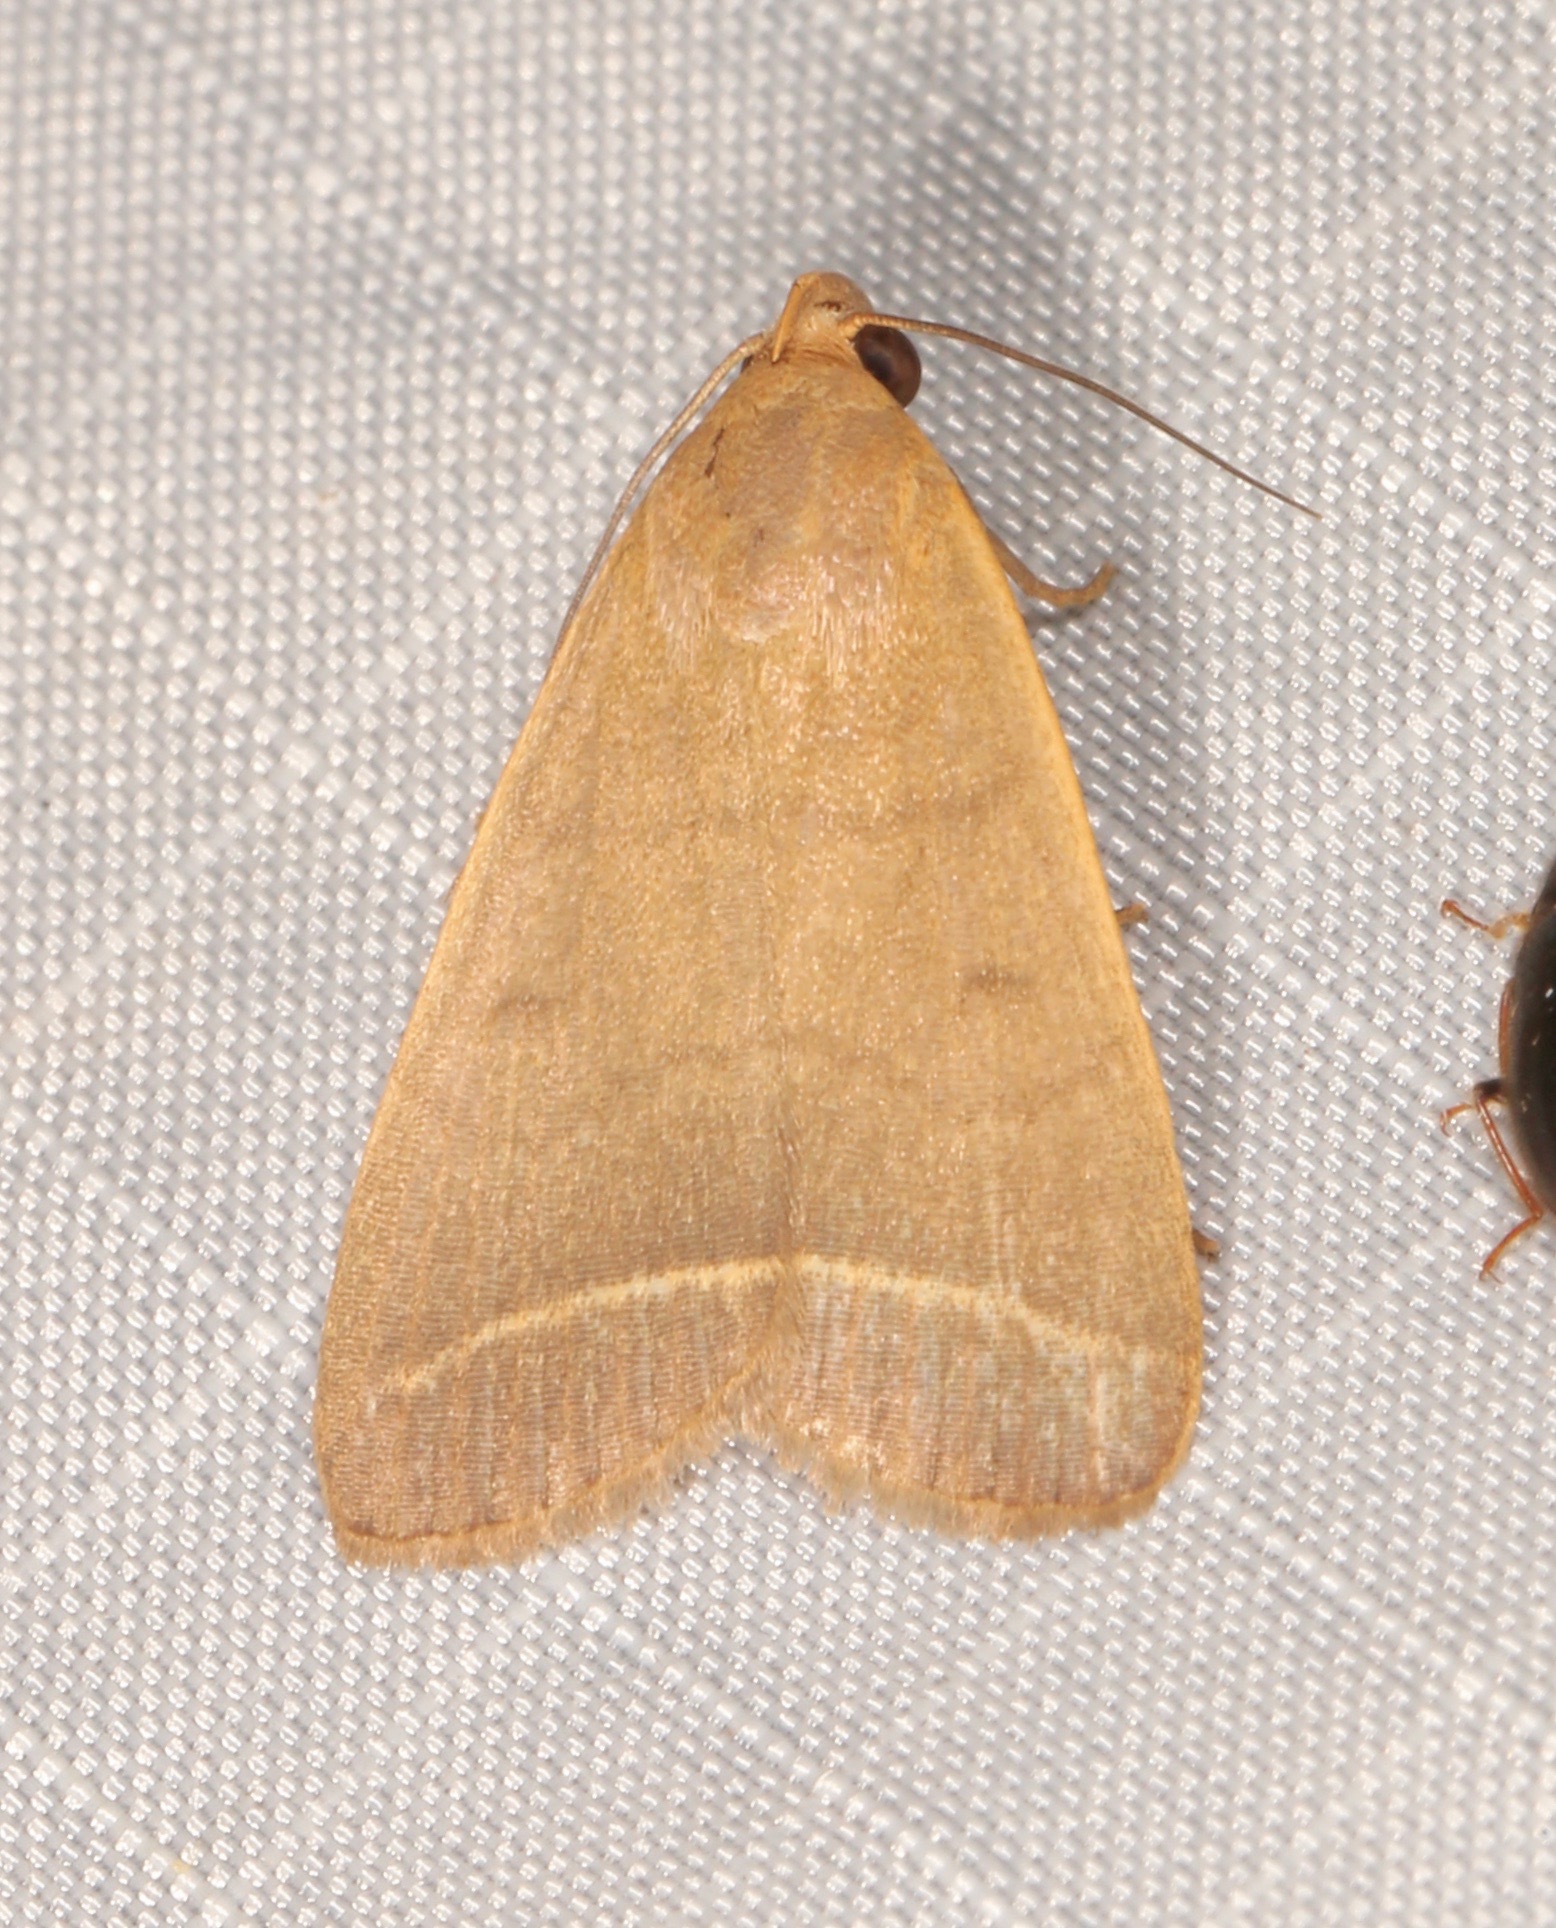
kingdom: Animalia
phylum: Arthropoda
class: Insecta
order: Lepidoptera
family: Erebidae
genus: Simplicia
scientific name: Simplicia cornicalis
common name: Tiki hut litter moth
